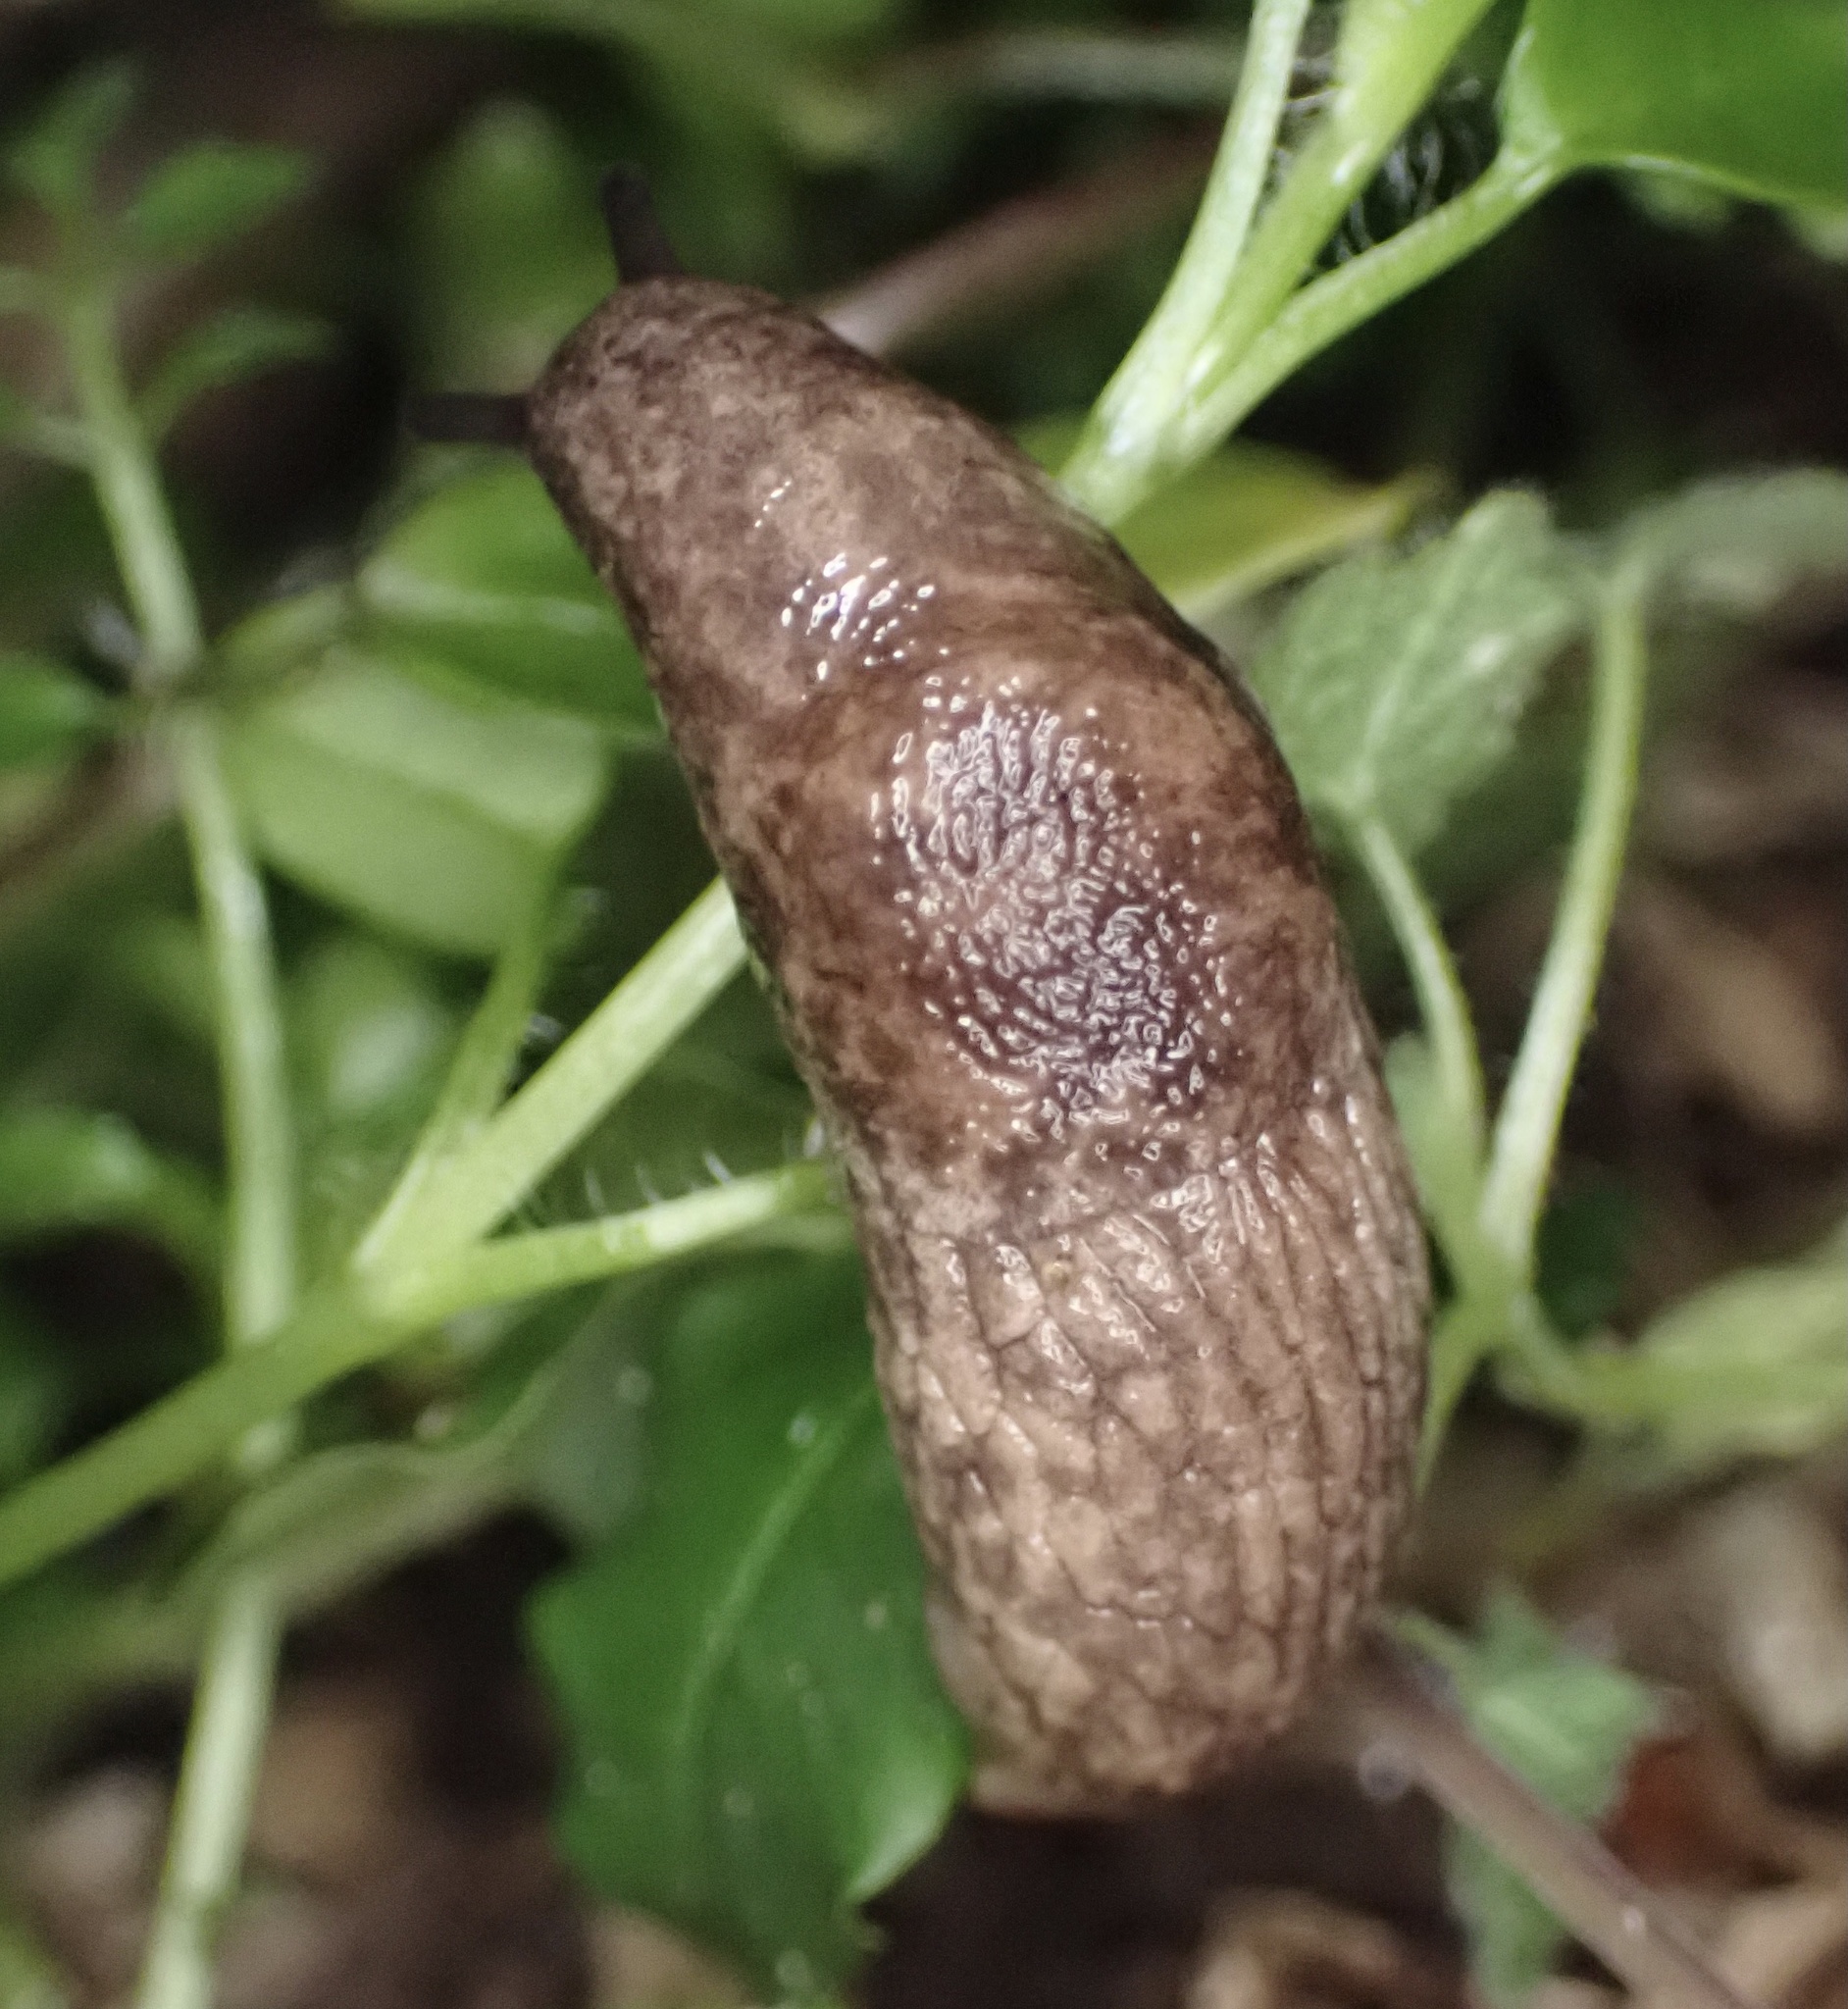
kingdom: Animalia
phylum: Mollusca
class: Gastropoda
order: Stylommatophora
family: Agriolimacidae
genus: Deroceras
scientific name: Deroceras reticulatum
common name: Gray field slug
